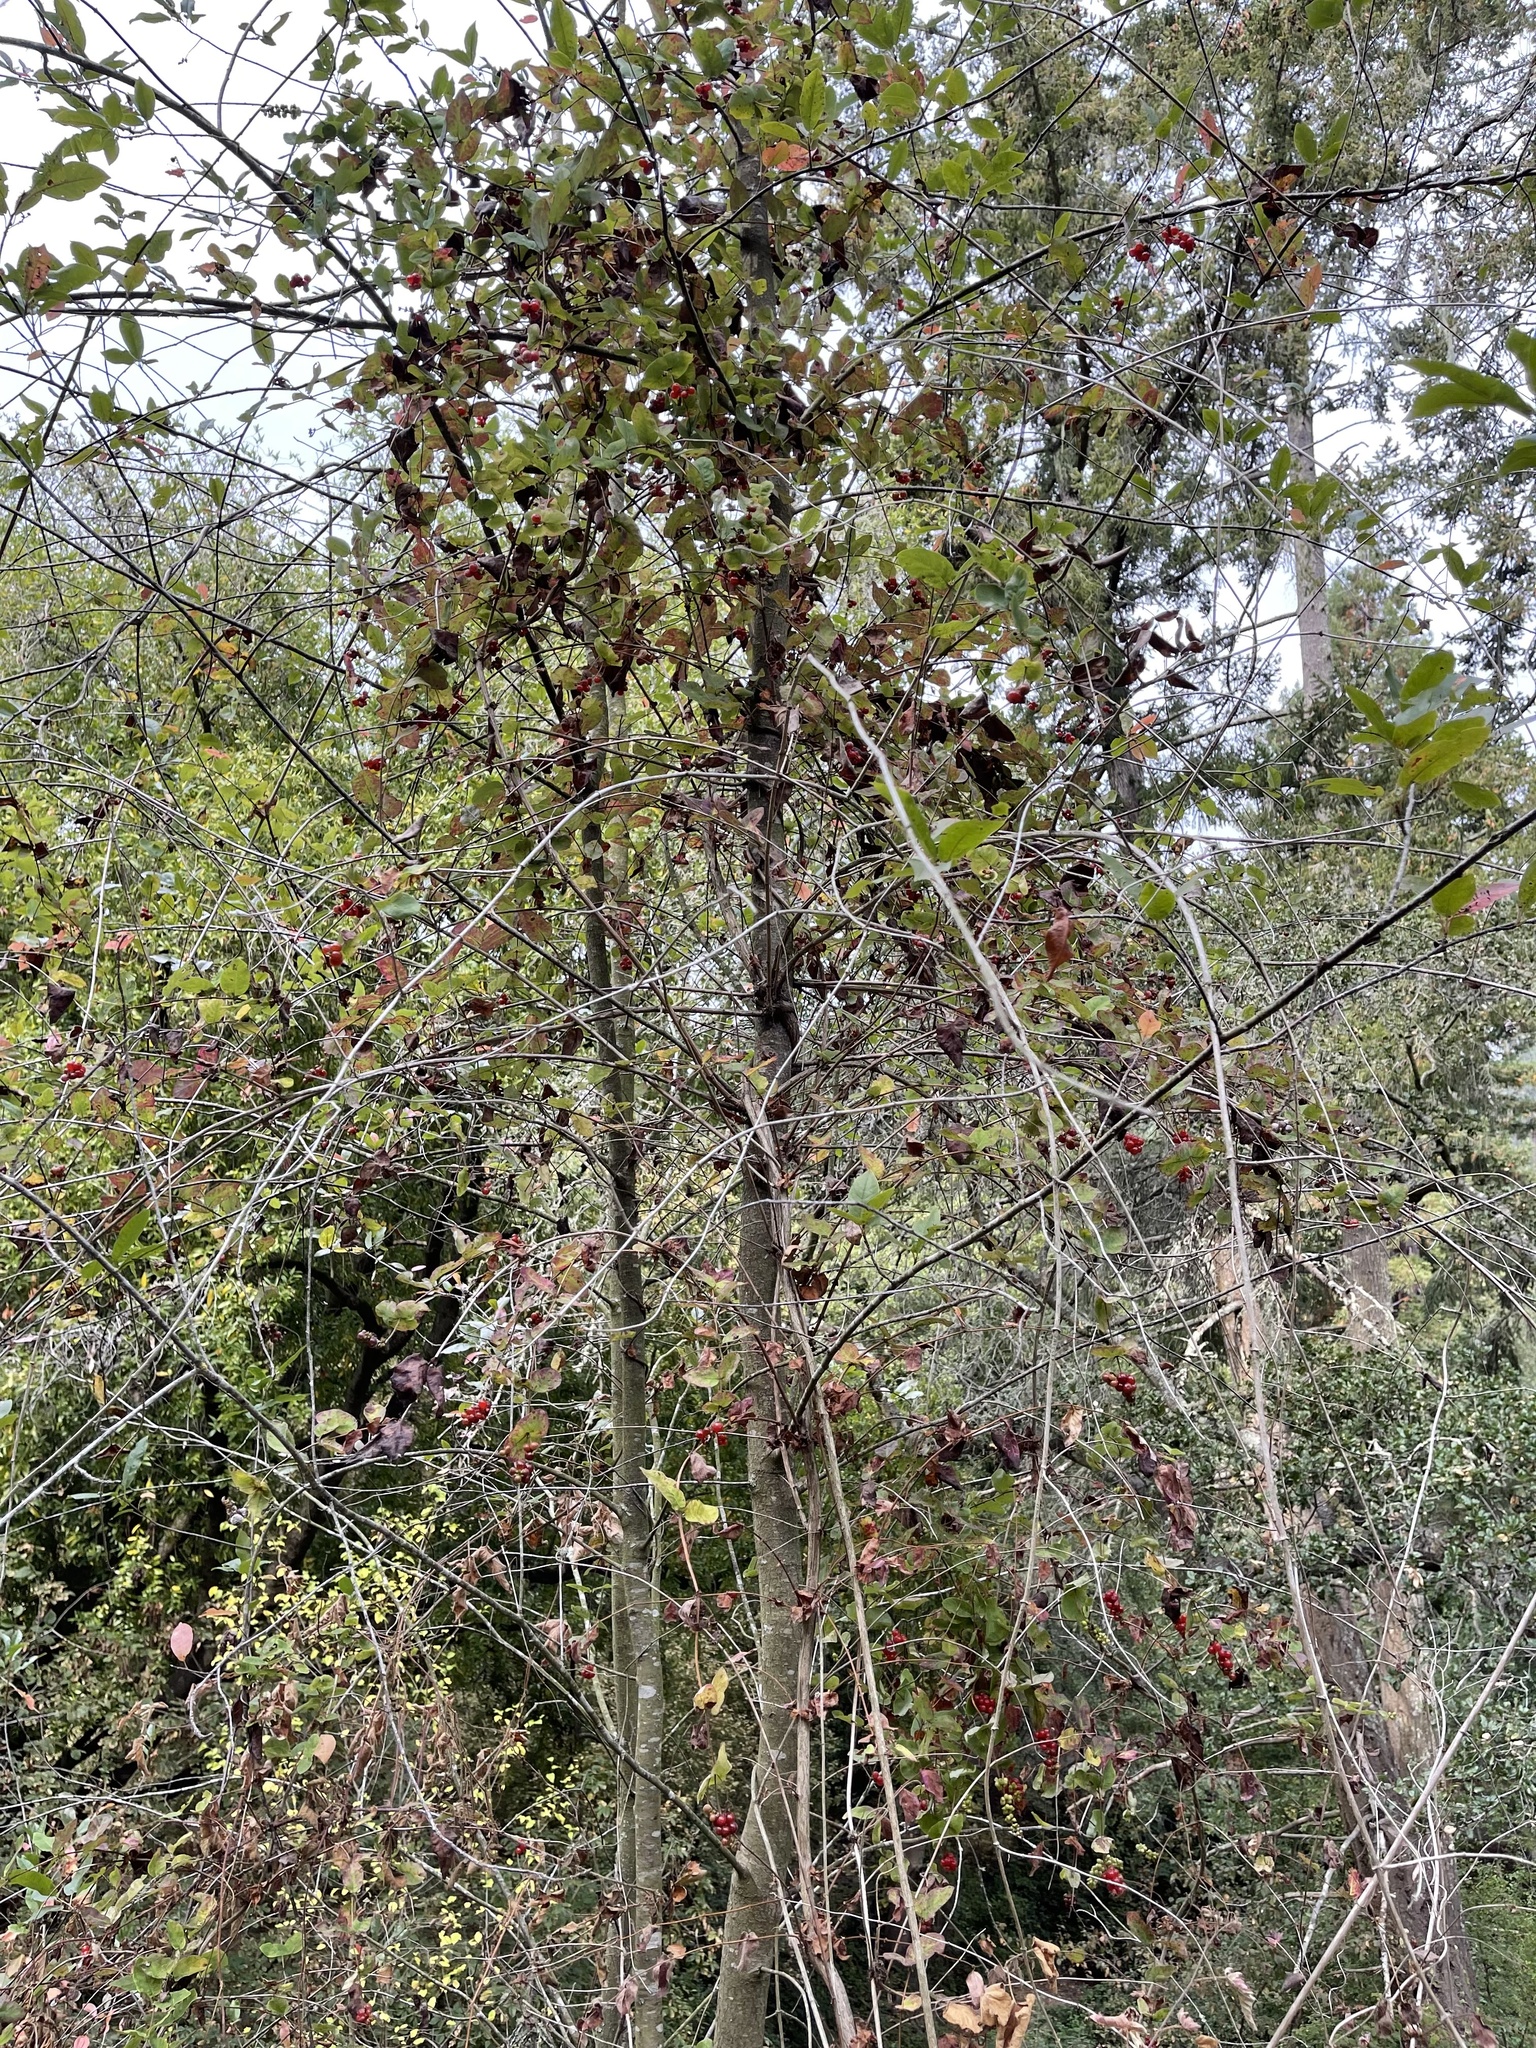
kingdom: Plantae
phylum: Tracheophyta
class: Magnoliopsida
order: Dipsacales
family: Caprifoliaceae
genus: Lonicera
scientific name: Lonicera hispidula
